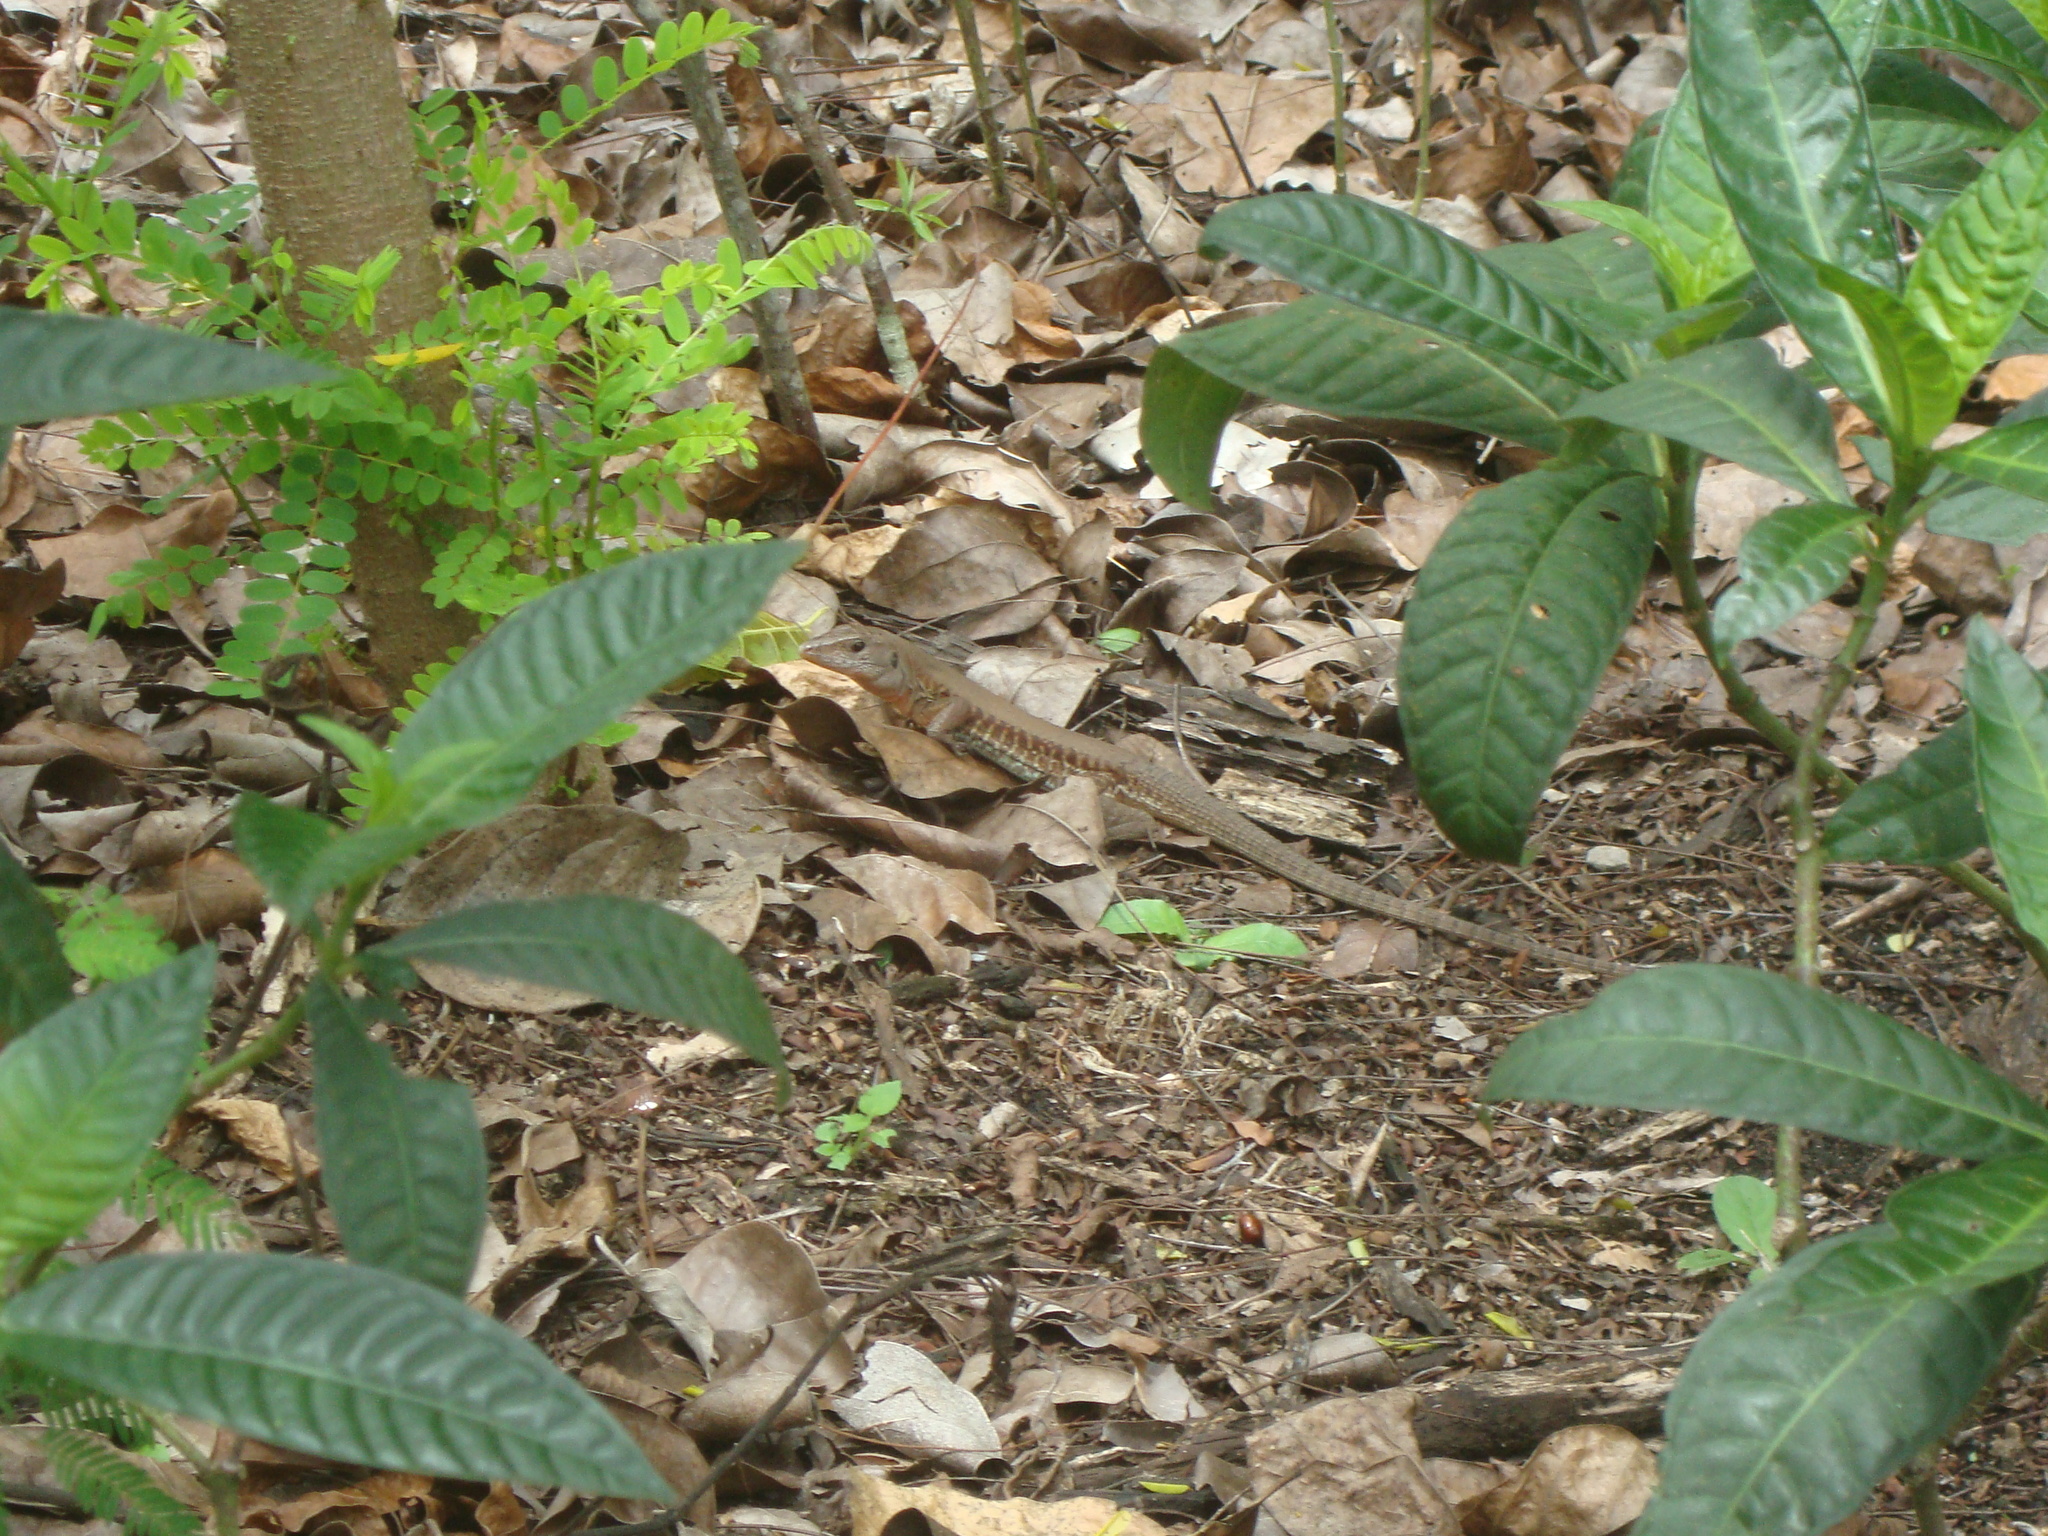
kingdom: Animalia
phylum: Chordata
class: Squamata
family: Teiidae
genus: Holcosus
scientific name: Holcosus undulatus
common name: Rainbow ameiva
